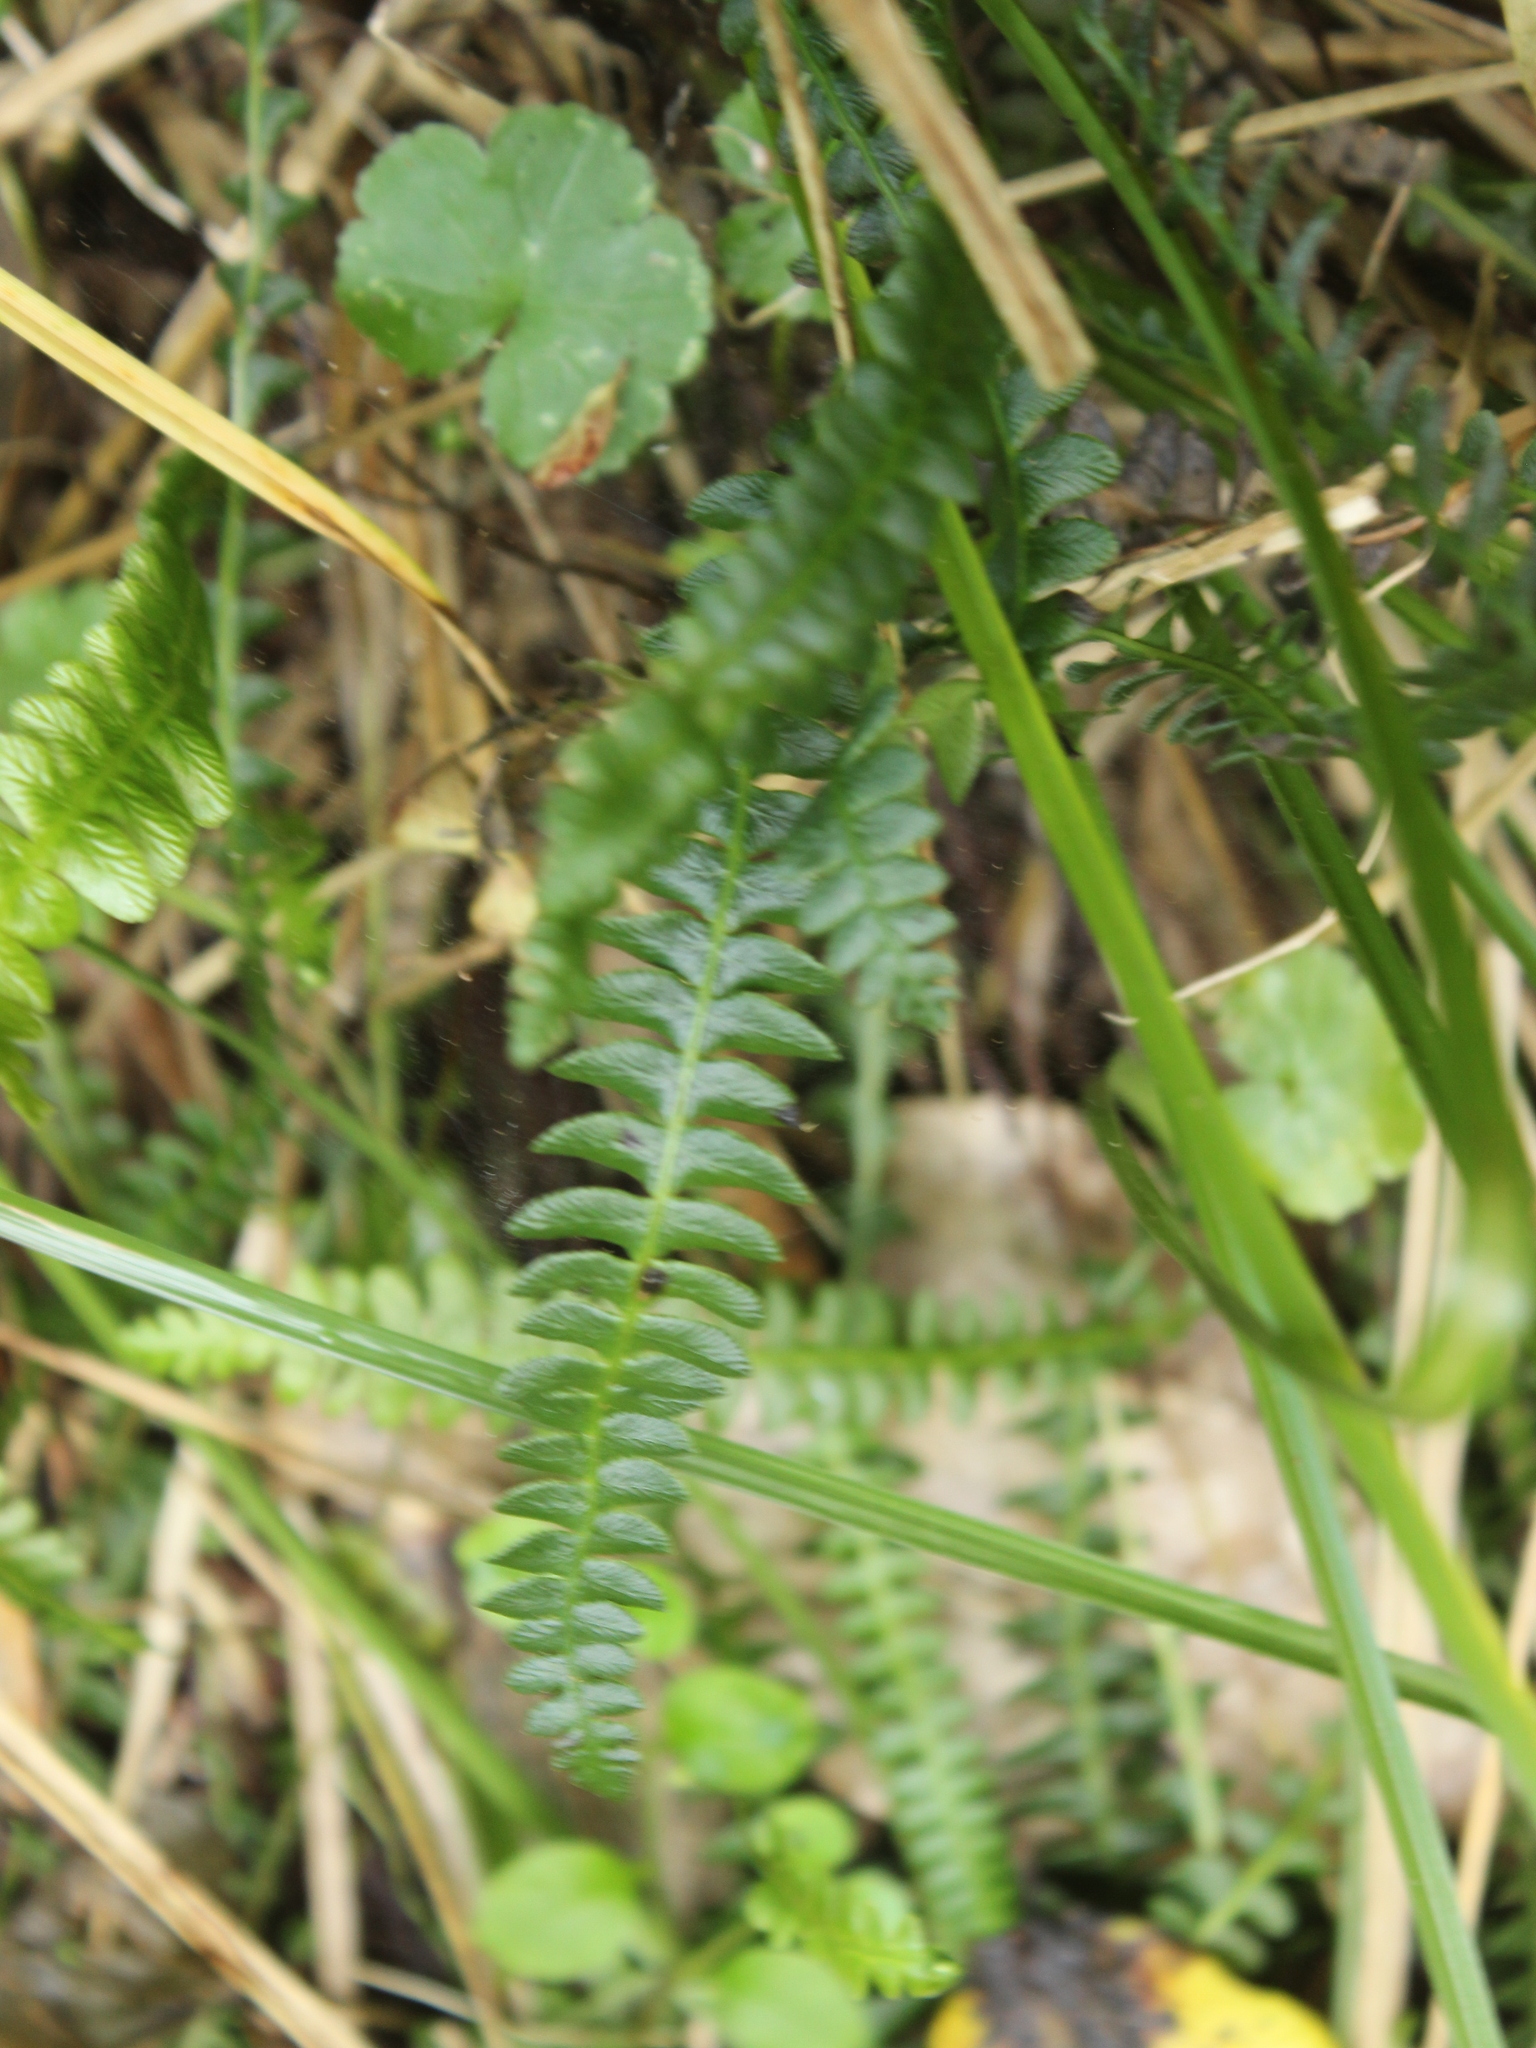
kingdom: Plantae
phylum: Tracheophyta
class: Polypodiopsida
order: Polypodiales
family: Blechnaceae
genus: Austroblechnum
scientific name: Austroblechnum penna-marina
